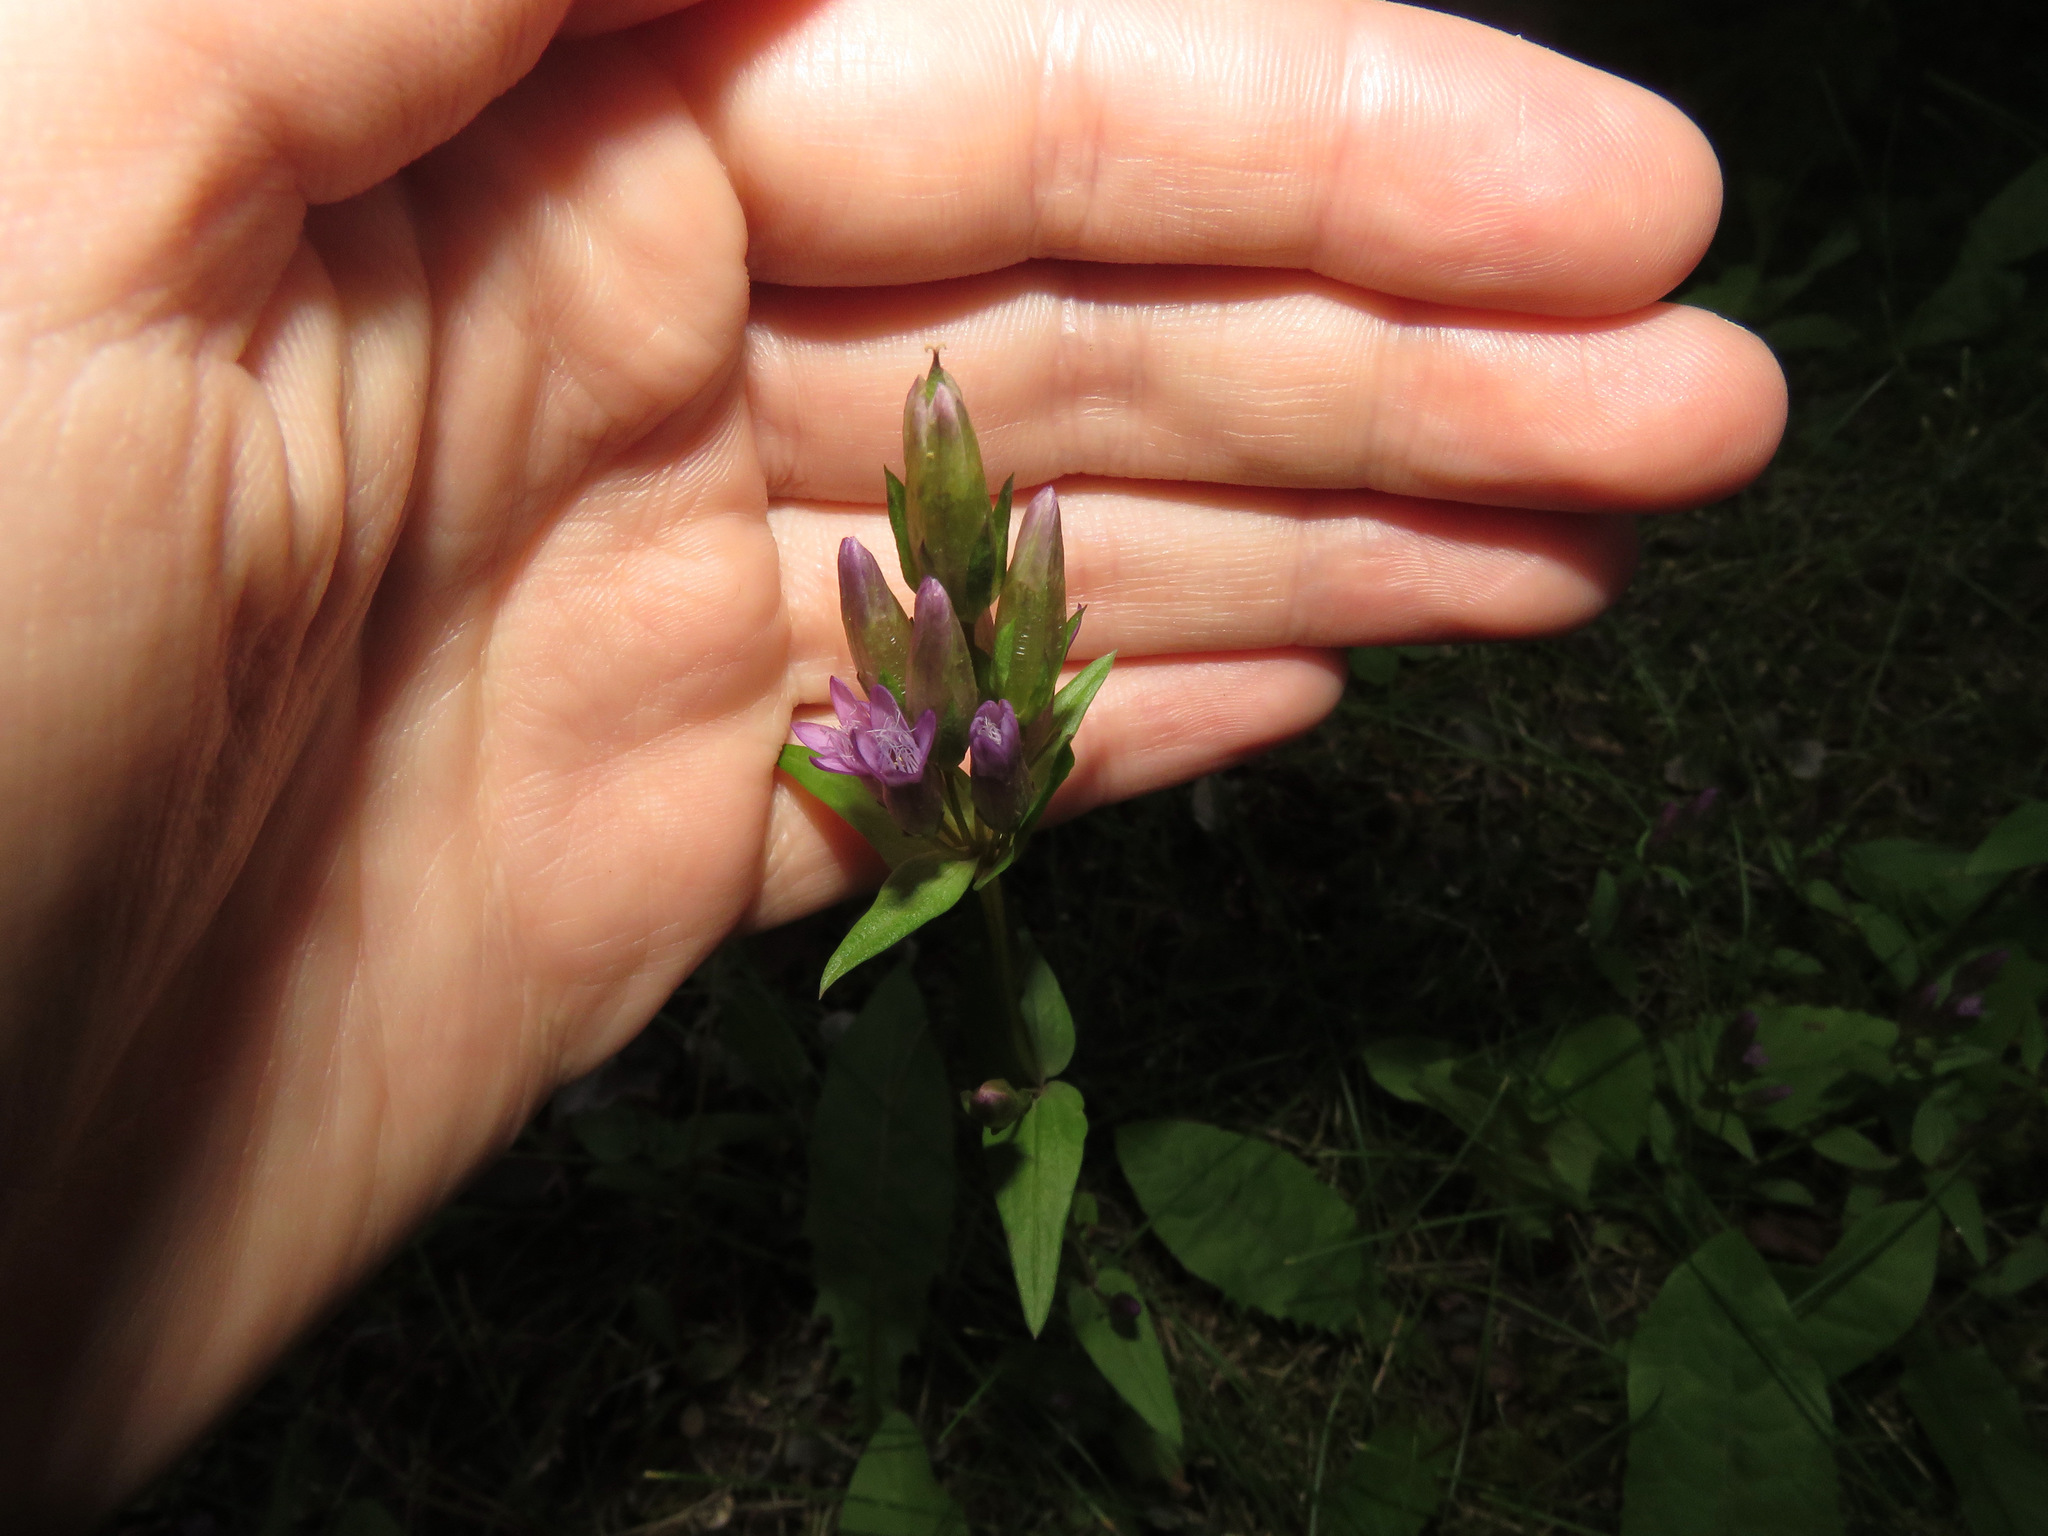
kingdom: Plantae
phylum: Tracheophyta
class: Magnoliopsida
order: Gentianales
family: Gentianaceae
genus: Gentianella
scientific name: Gentianella amarella
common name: Autumn gentian
